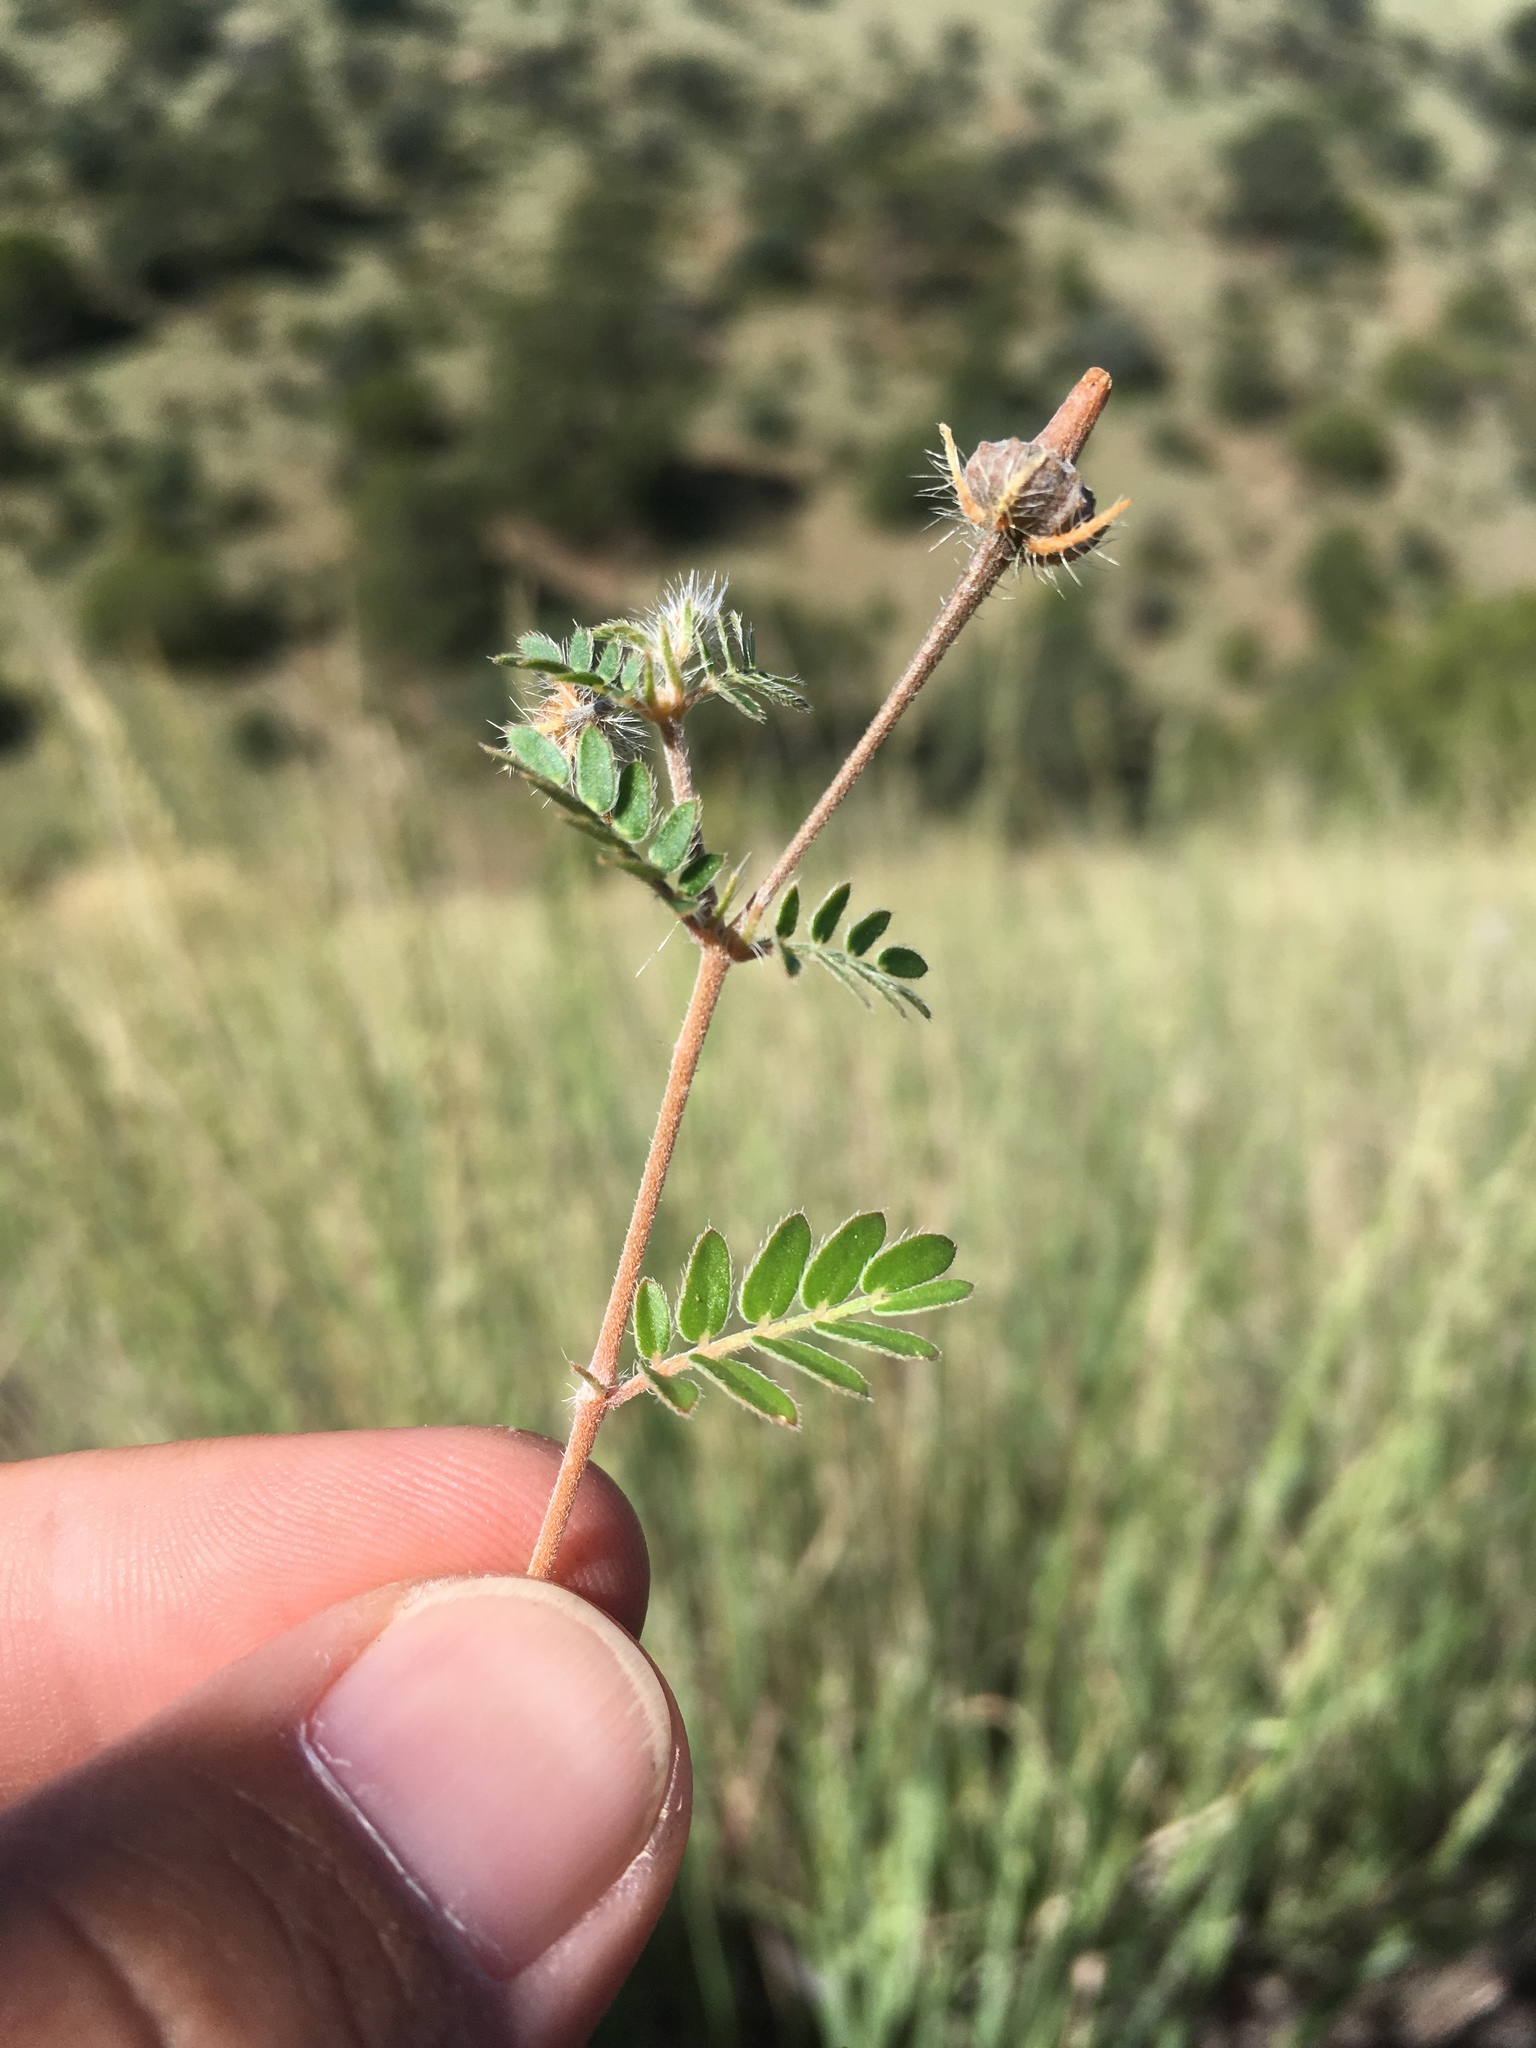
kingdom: Plantae
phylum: Tracheophyta
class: Magnoliopsida
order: Zygophyllales
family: Zygophyllaceae
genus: Kallstroemia
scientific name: Kallstroemia parviflora
